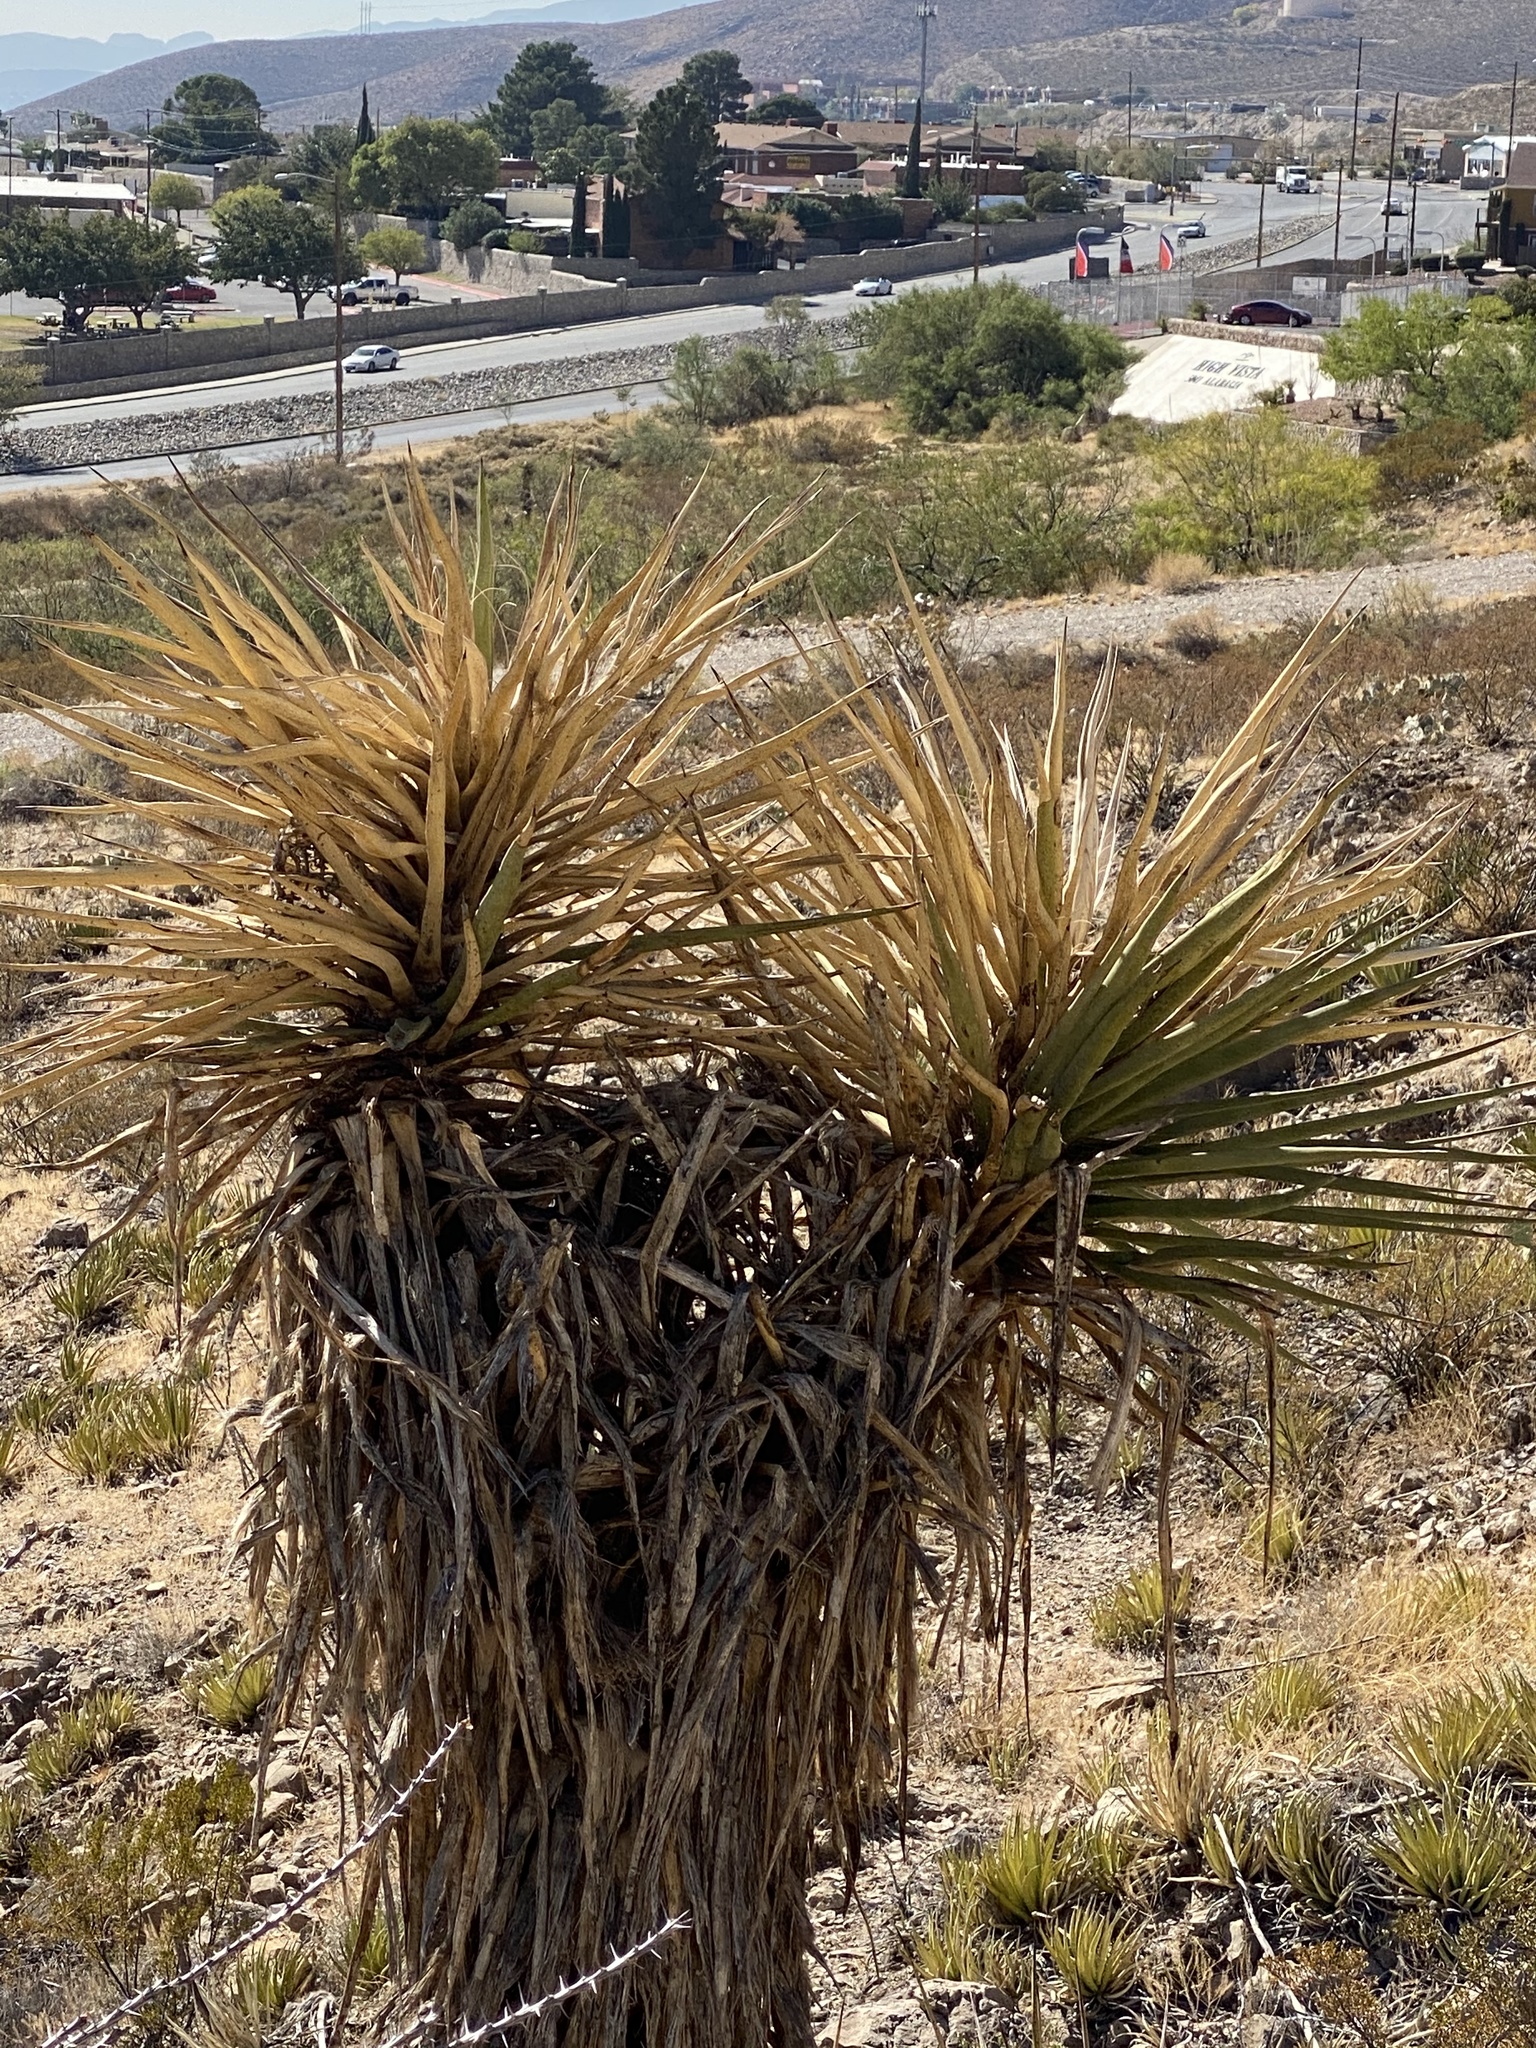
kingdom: Plantae
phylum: Tracheophyta
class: Liliopsida
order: Asparagales
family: Asparagaceae
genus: Yucca
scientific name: Yucca treculiana
